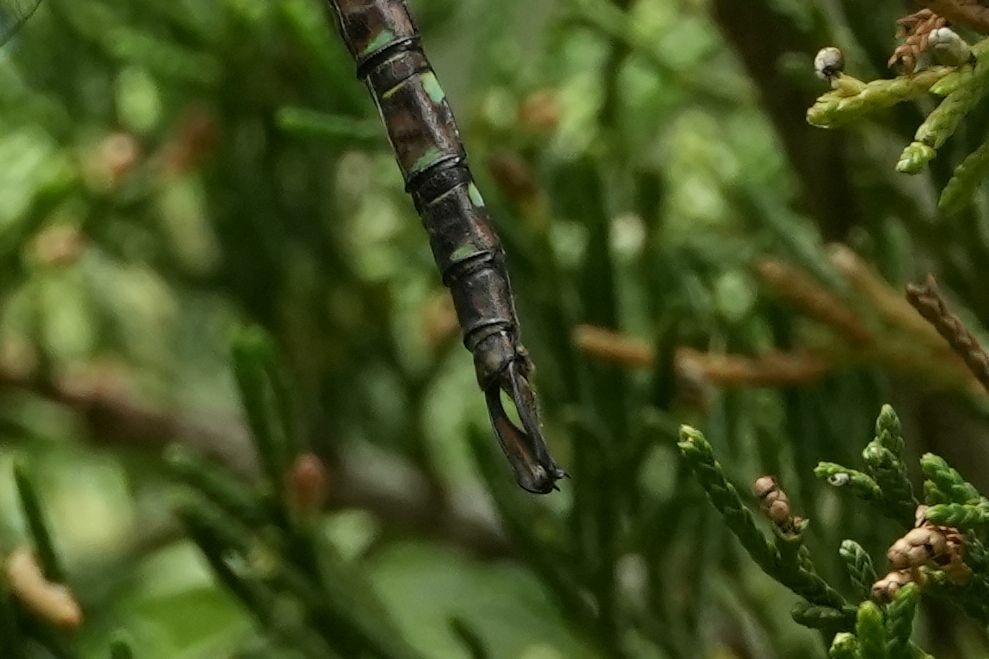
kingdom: Animalia
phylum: Arthropoda
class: Insecta
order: Odonata
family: Aeshnidae
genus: Aeshna
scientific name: Aeshna umbrosa
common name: Shadow darner
